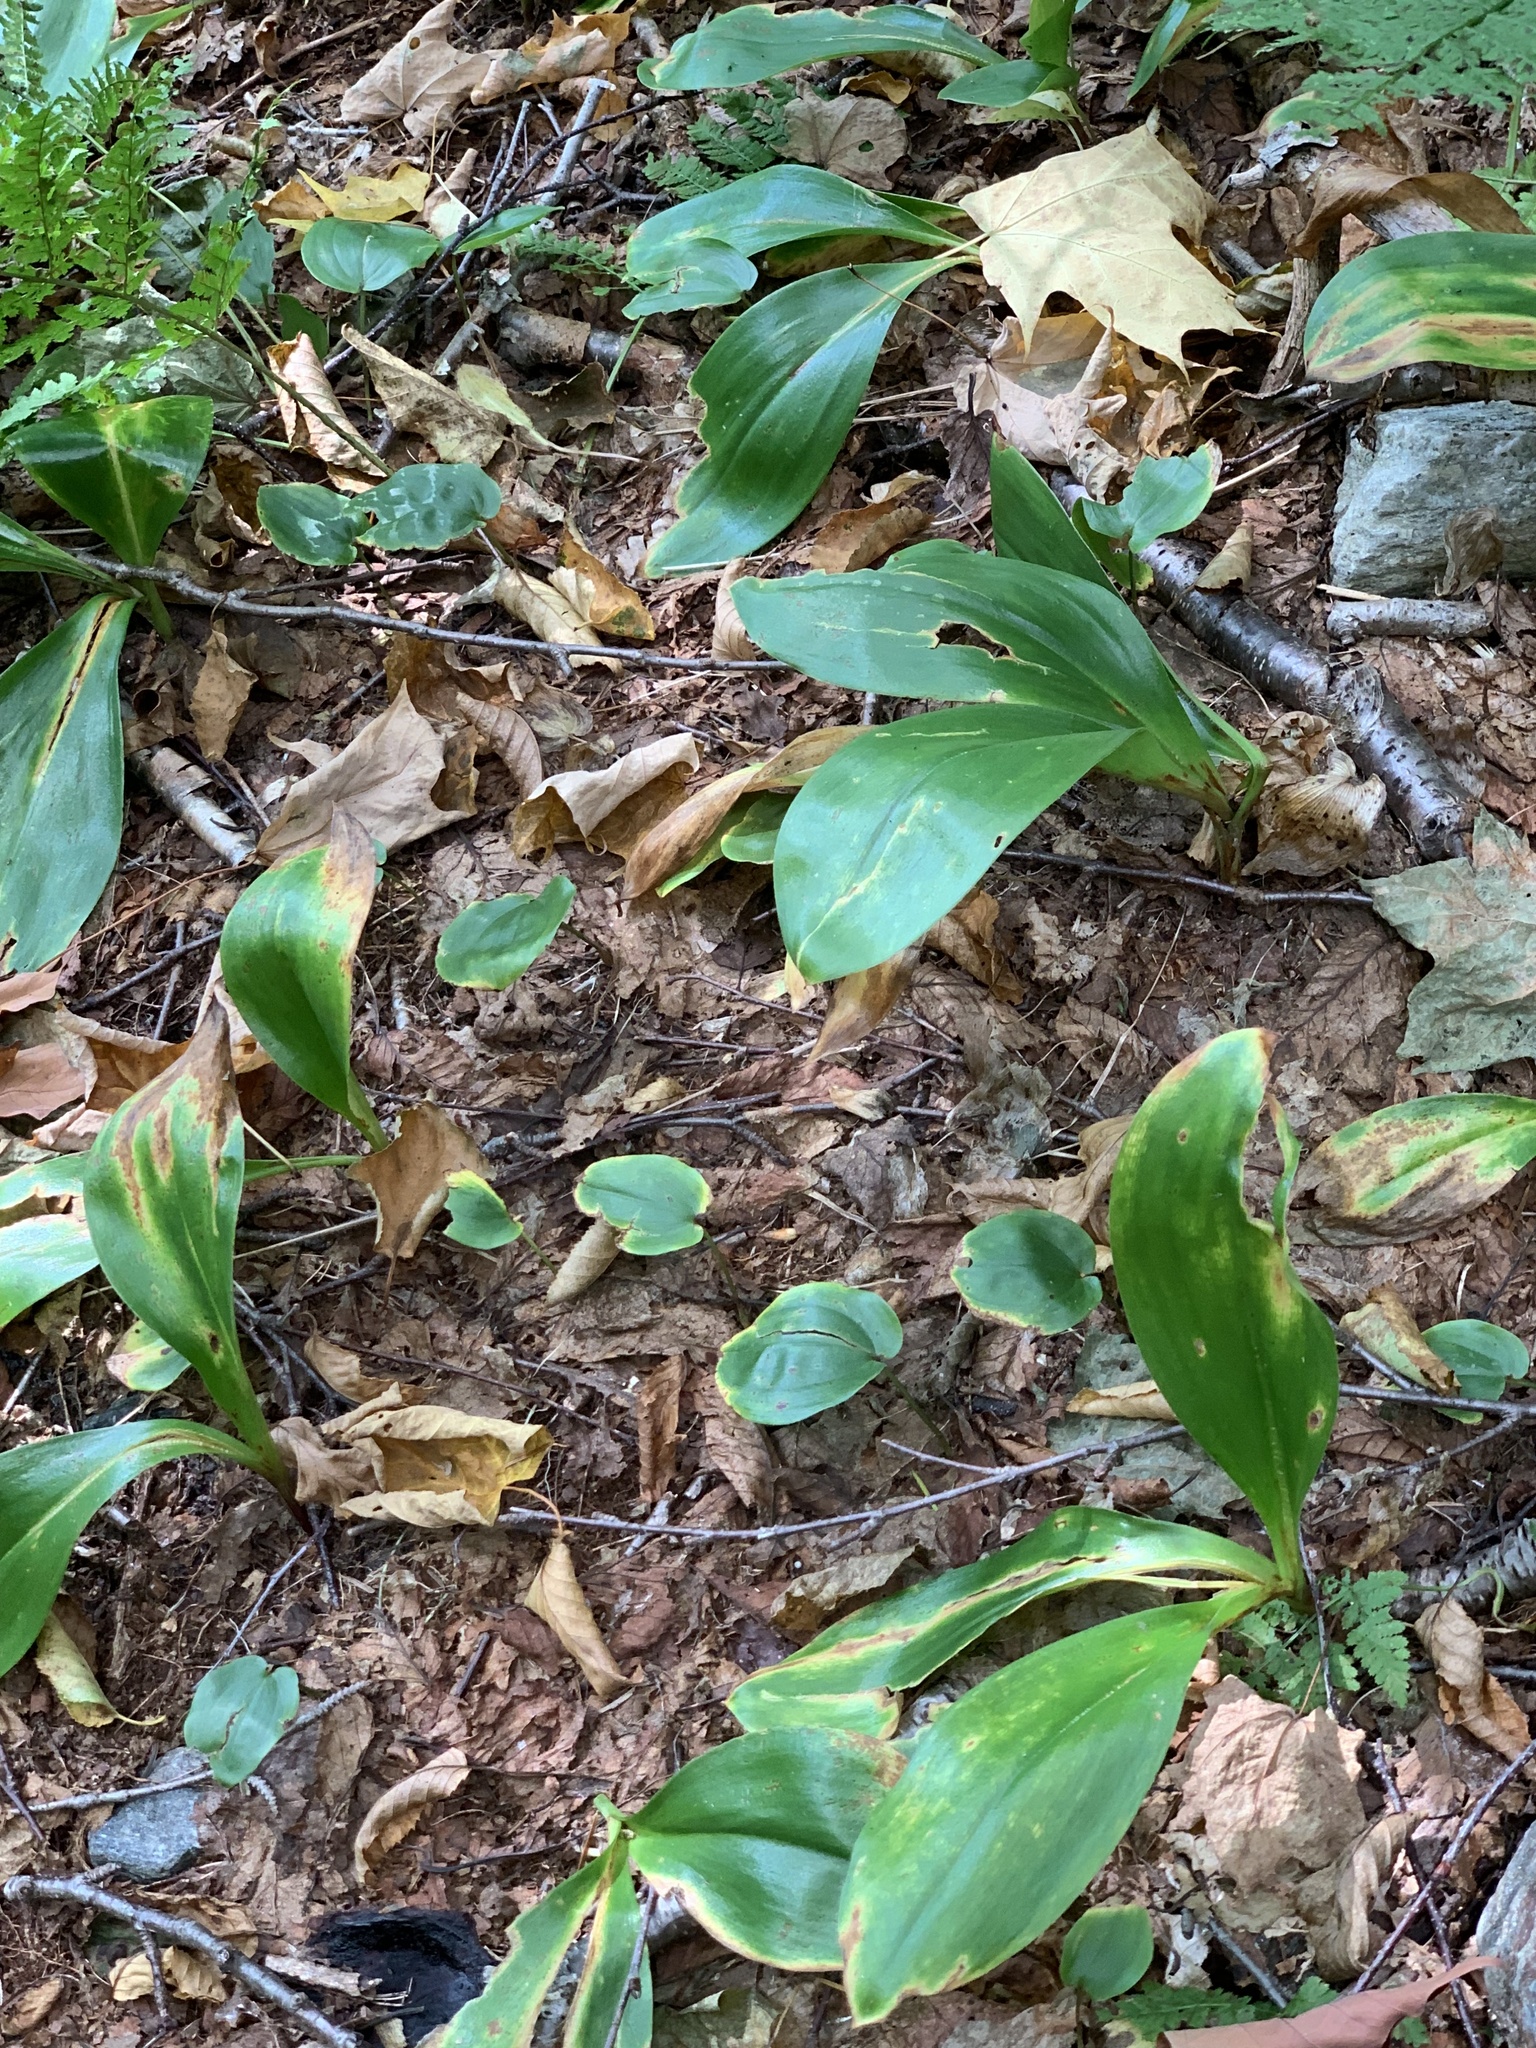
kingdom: Plantae
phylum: Tracheophyta
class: Liliopsida
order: Liliales
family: Liliaceae
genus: Clintonia
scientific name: Clintonia borealis
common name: Yellow clintonia
